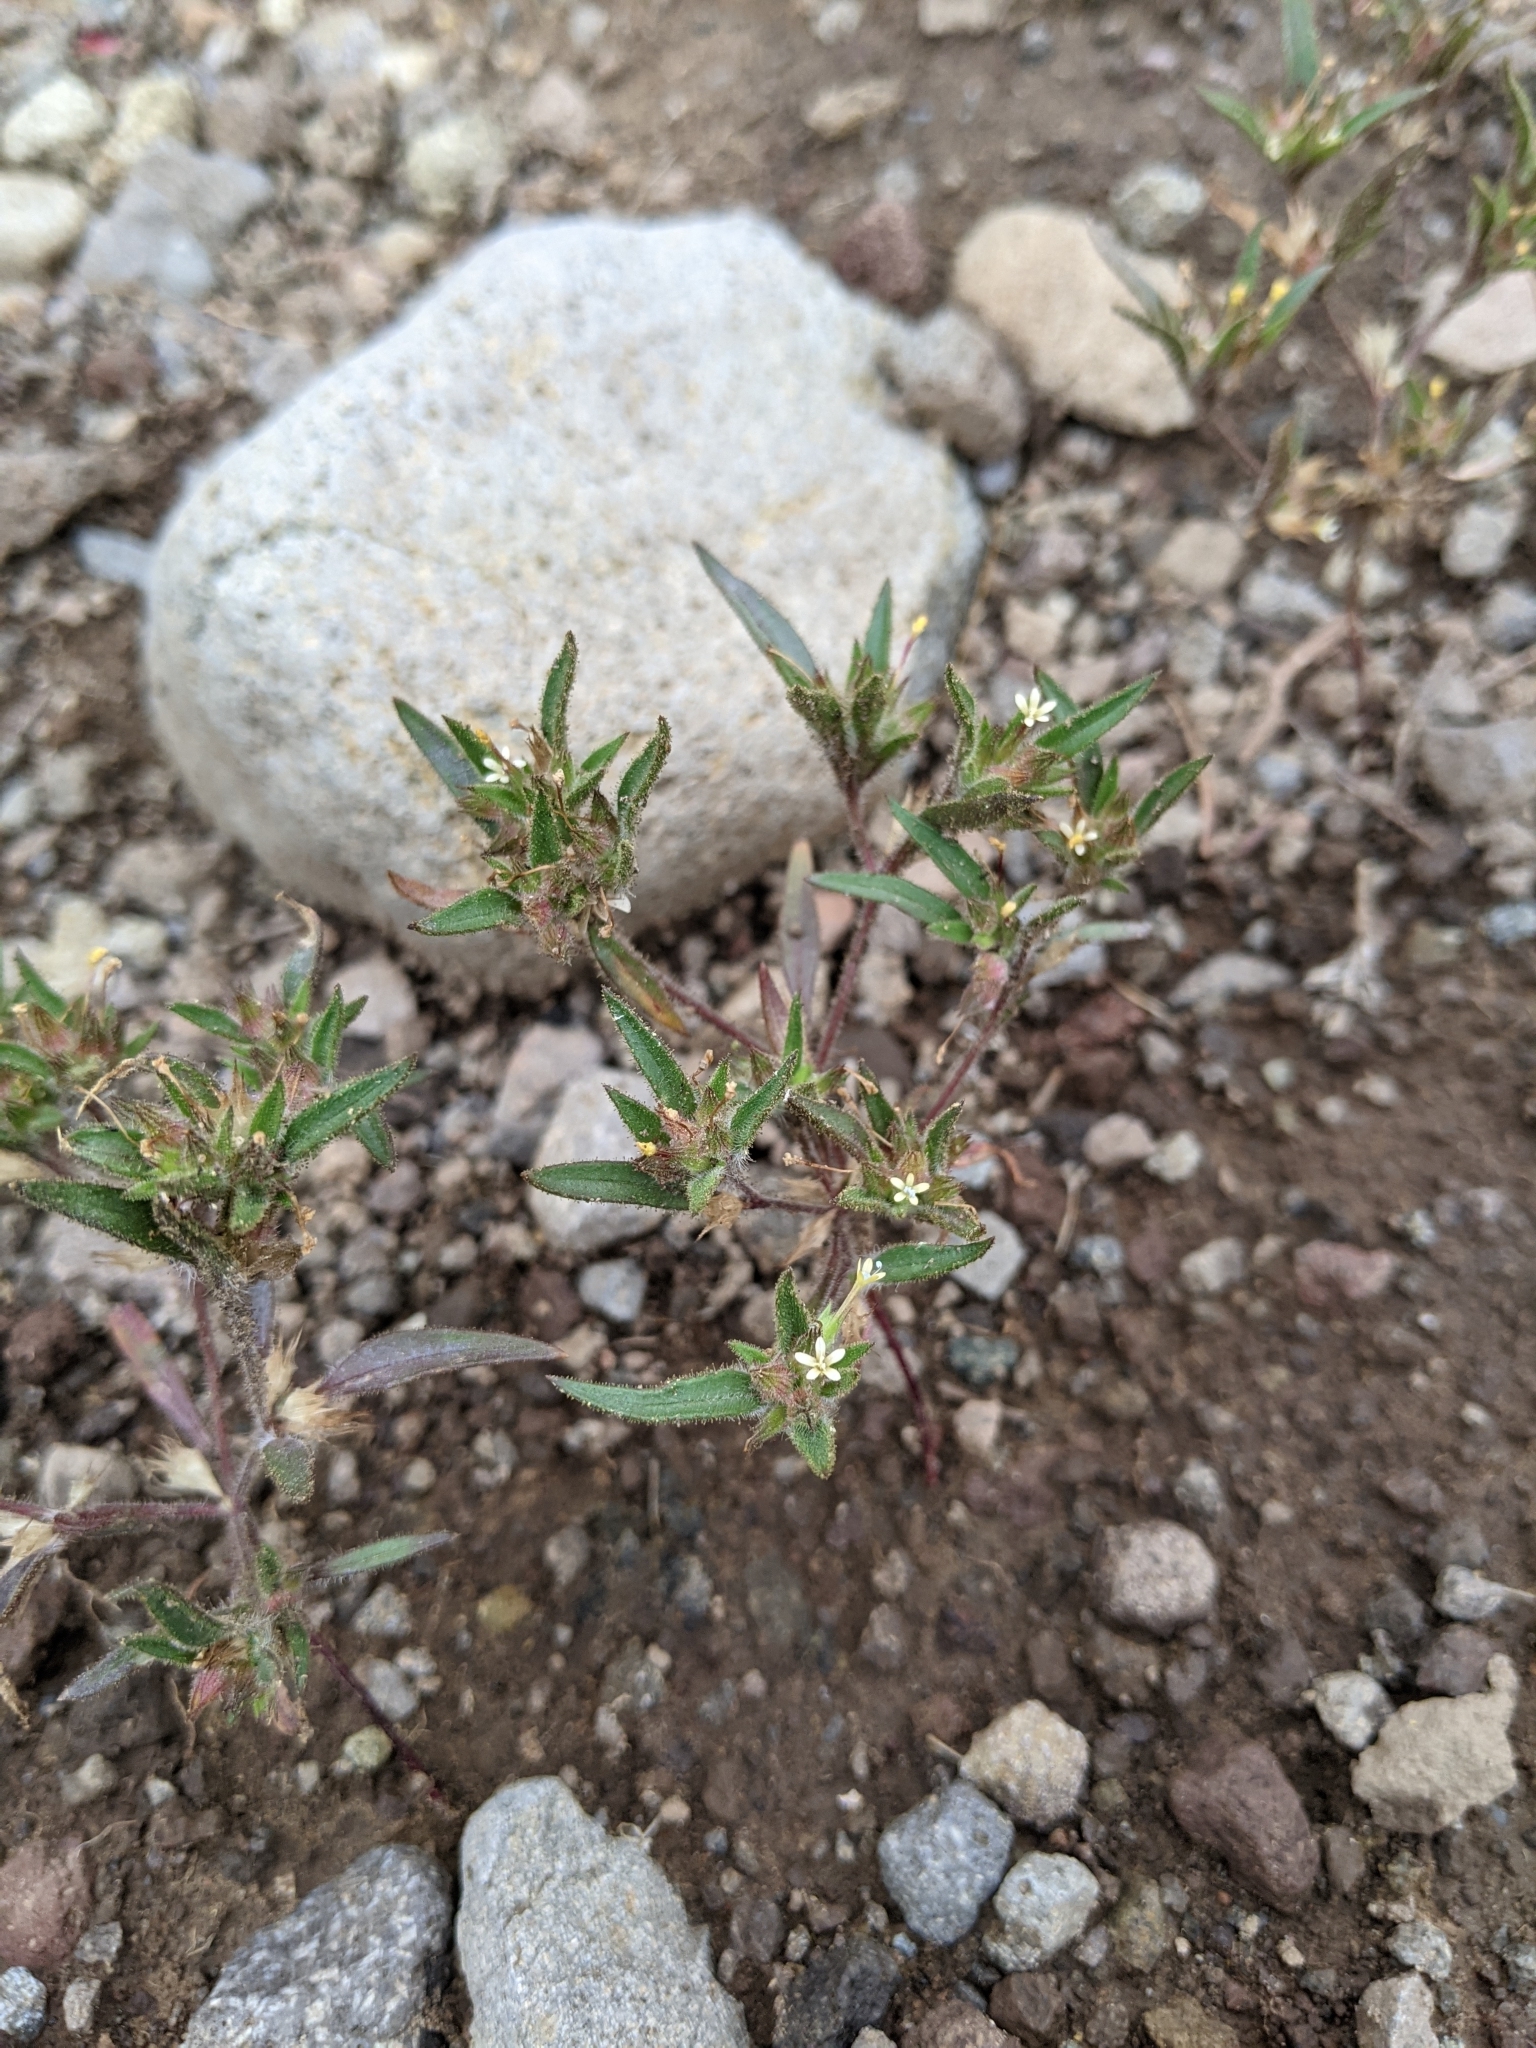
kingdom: Plantae
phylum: Tracheophyta
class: Magnoliopsida
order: Ericales
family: Polemoniaceae
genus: Collomia
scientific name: Collomia tinctoria
